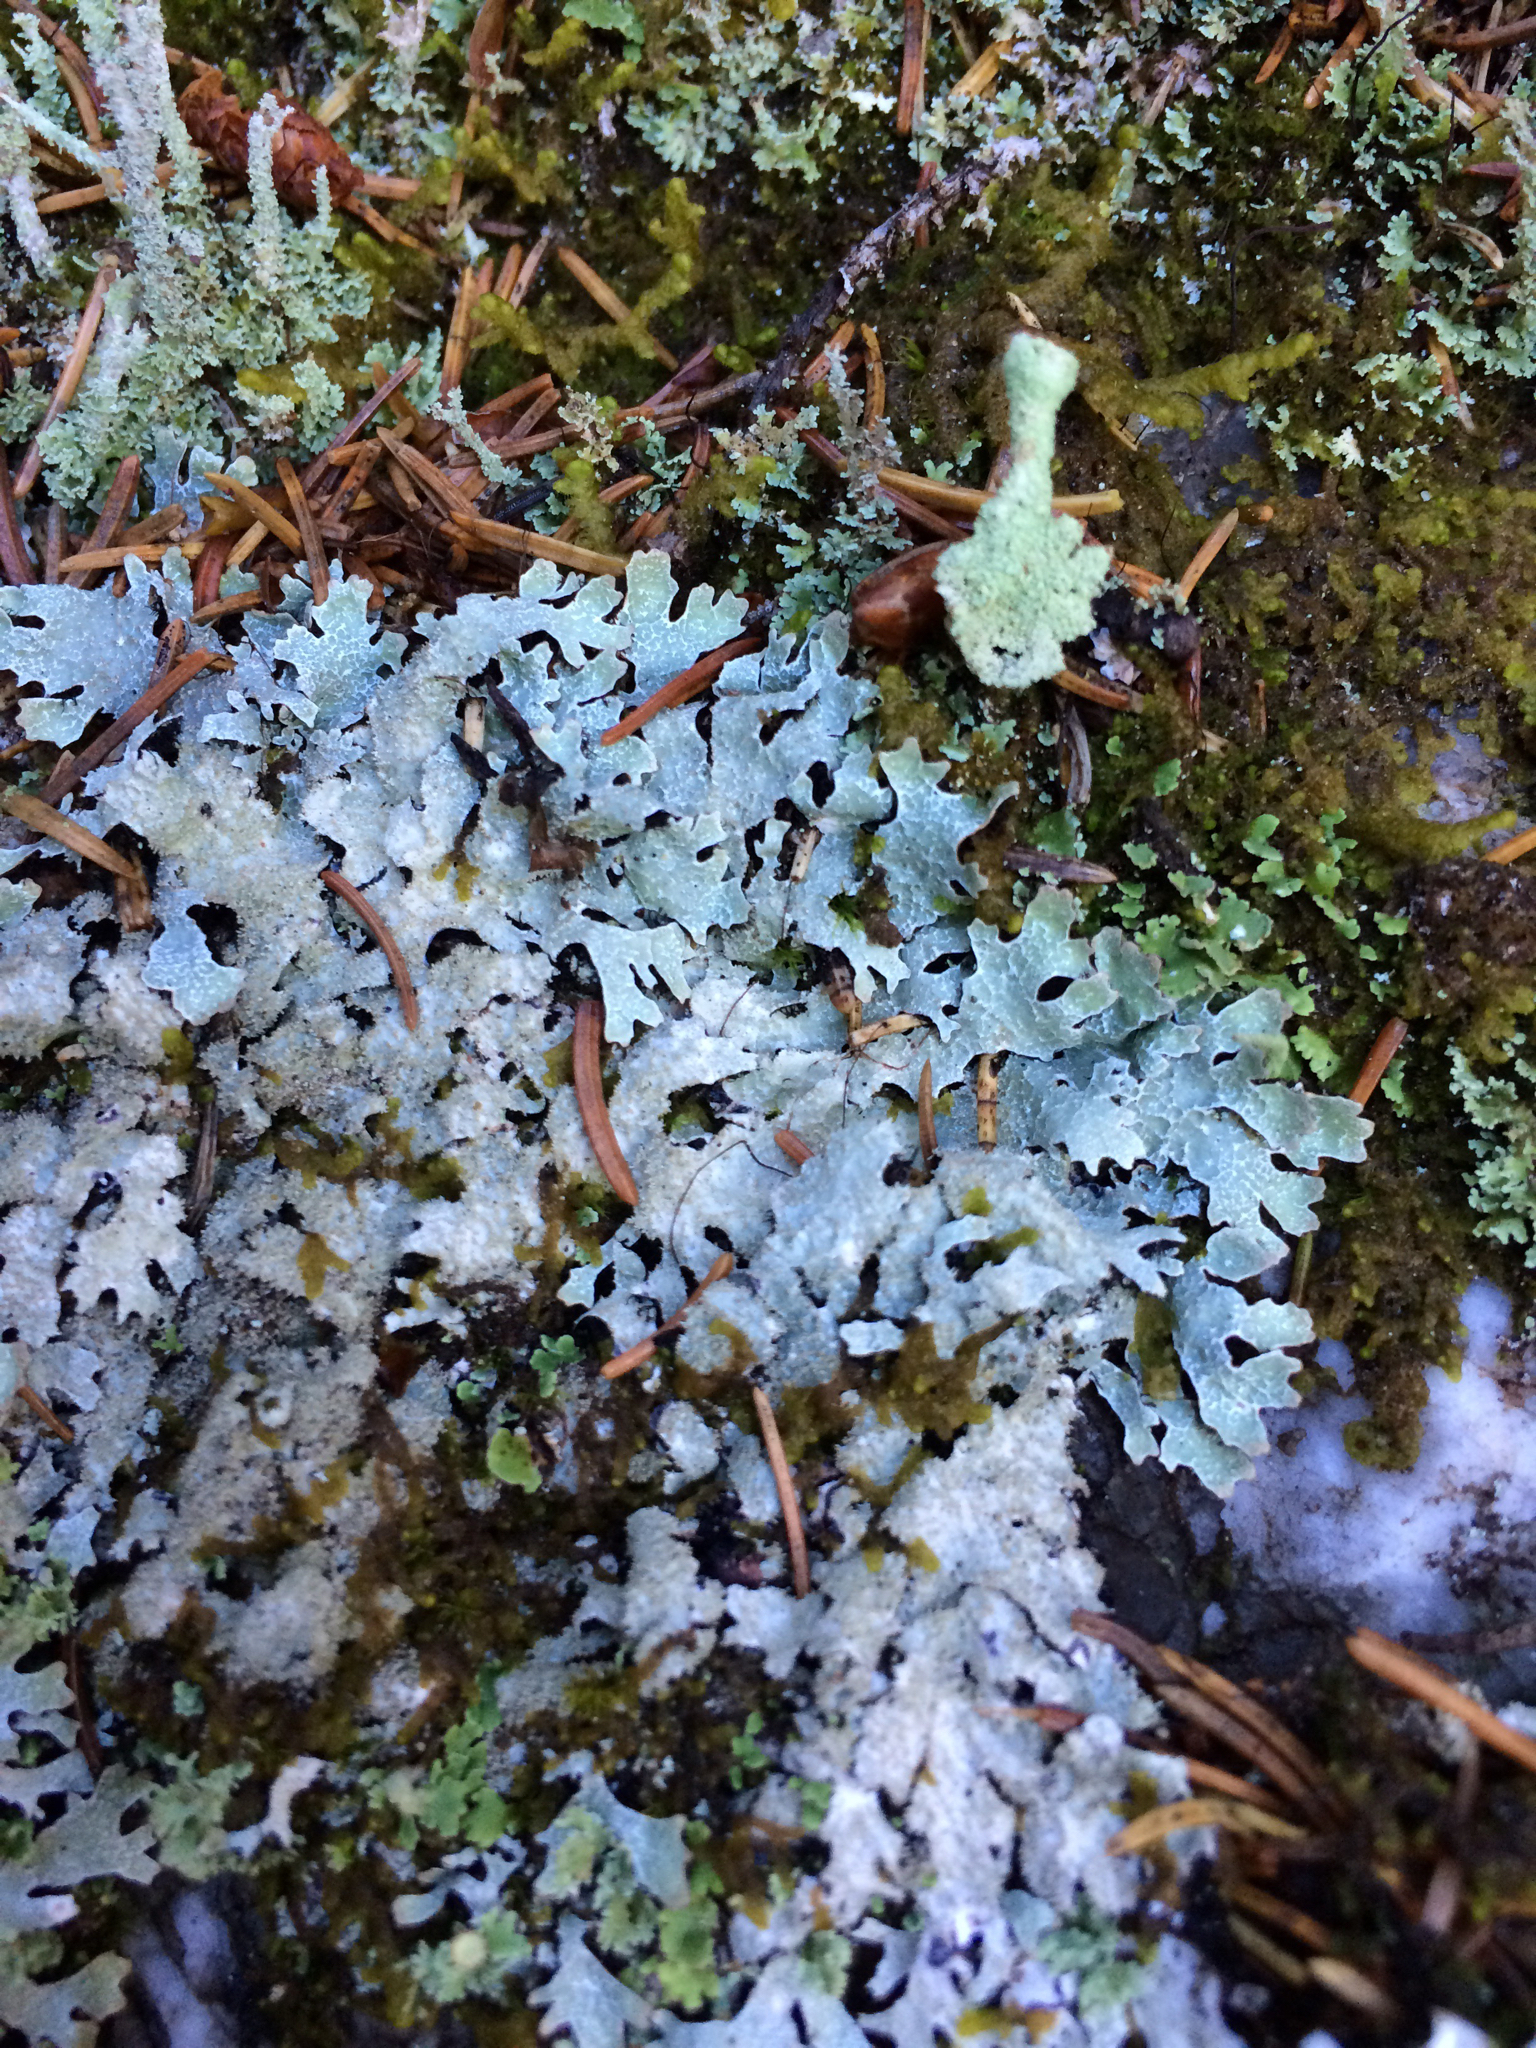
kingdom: Fungi
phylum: Ascomycota
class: Lecanoromycetes
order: Lecanorales
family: Parmeliaceae
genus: Parmelia
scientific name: Parmelia squarrosa
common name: Bottle brush shield lichen
